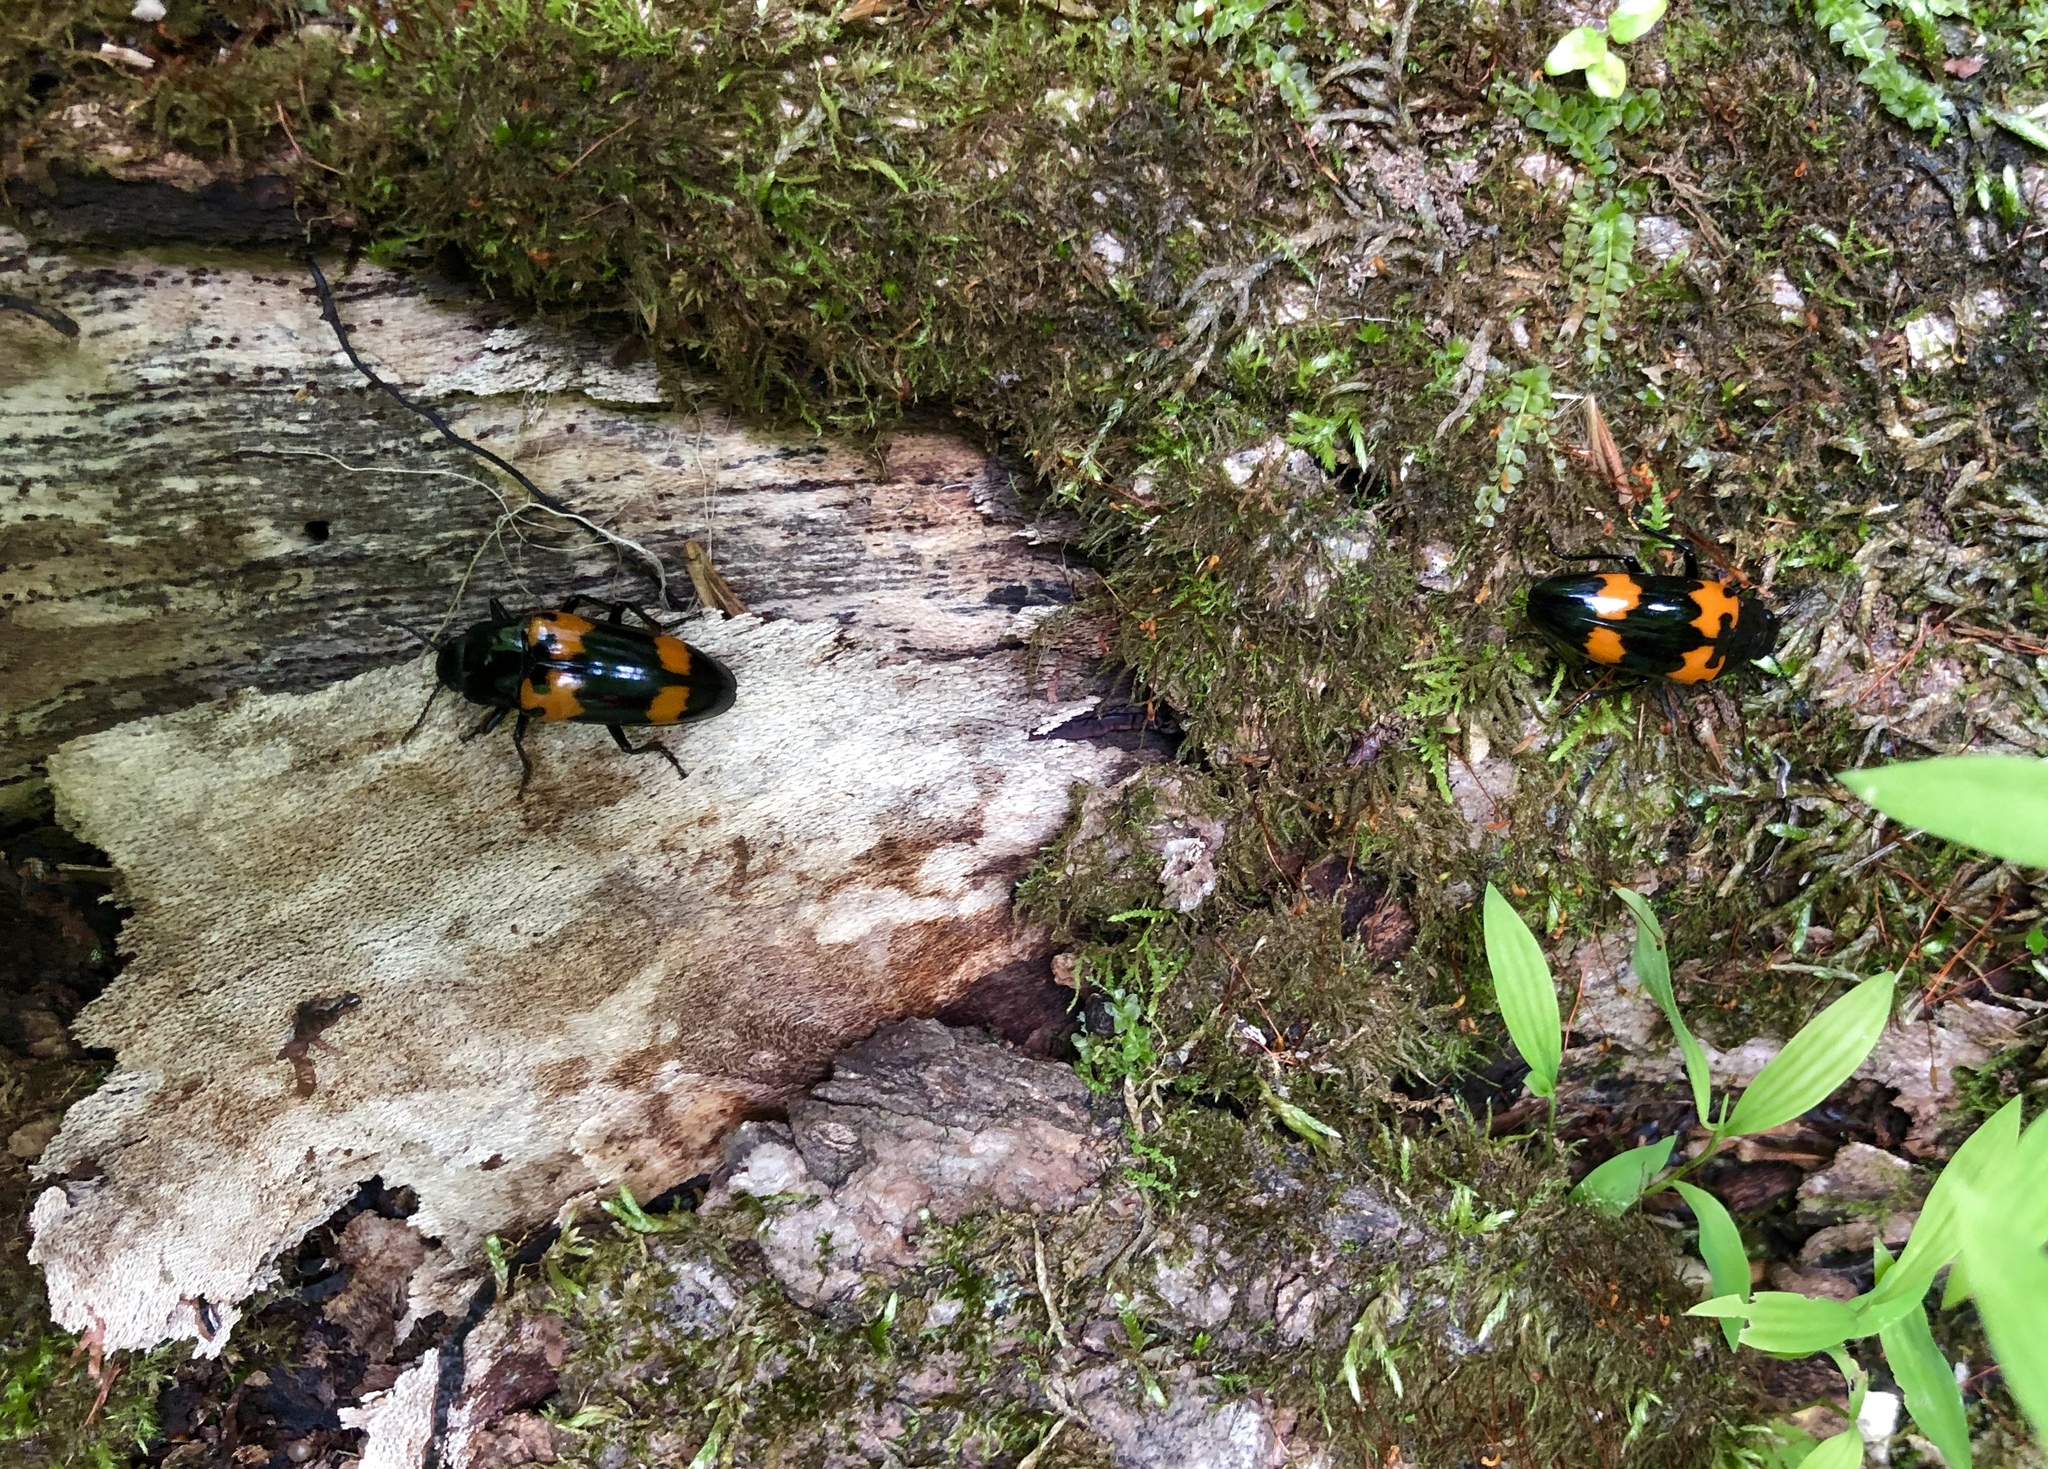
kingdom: Animalia
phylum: Arthropoda
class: Insecta
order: Coleoptera
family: Erotylidae
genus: Megalodacne
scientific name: Megalodacne heros
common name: Pleasing fungus beetle
